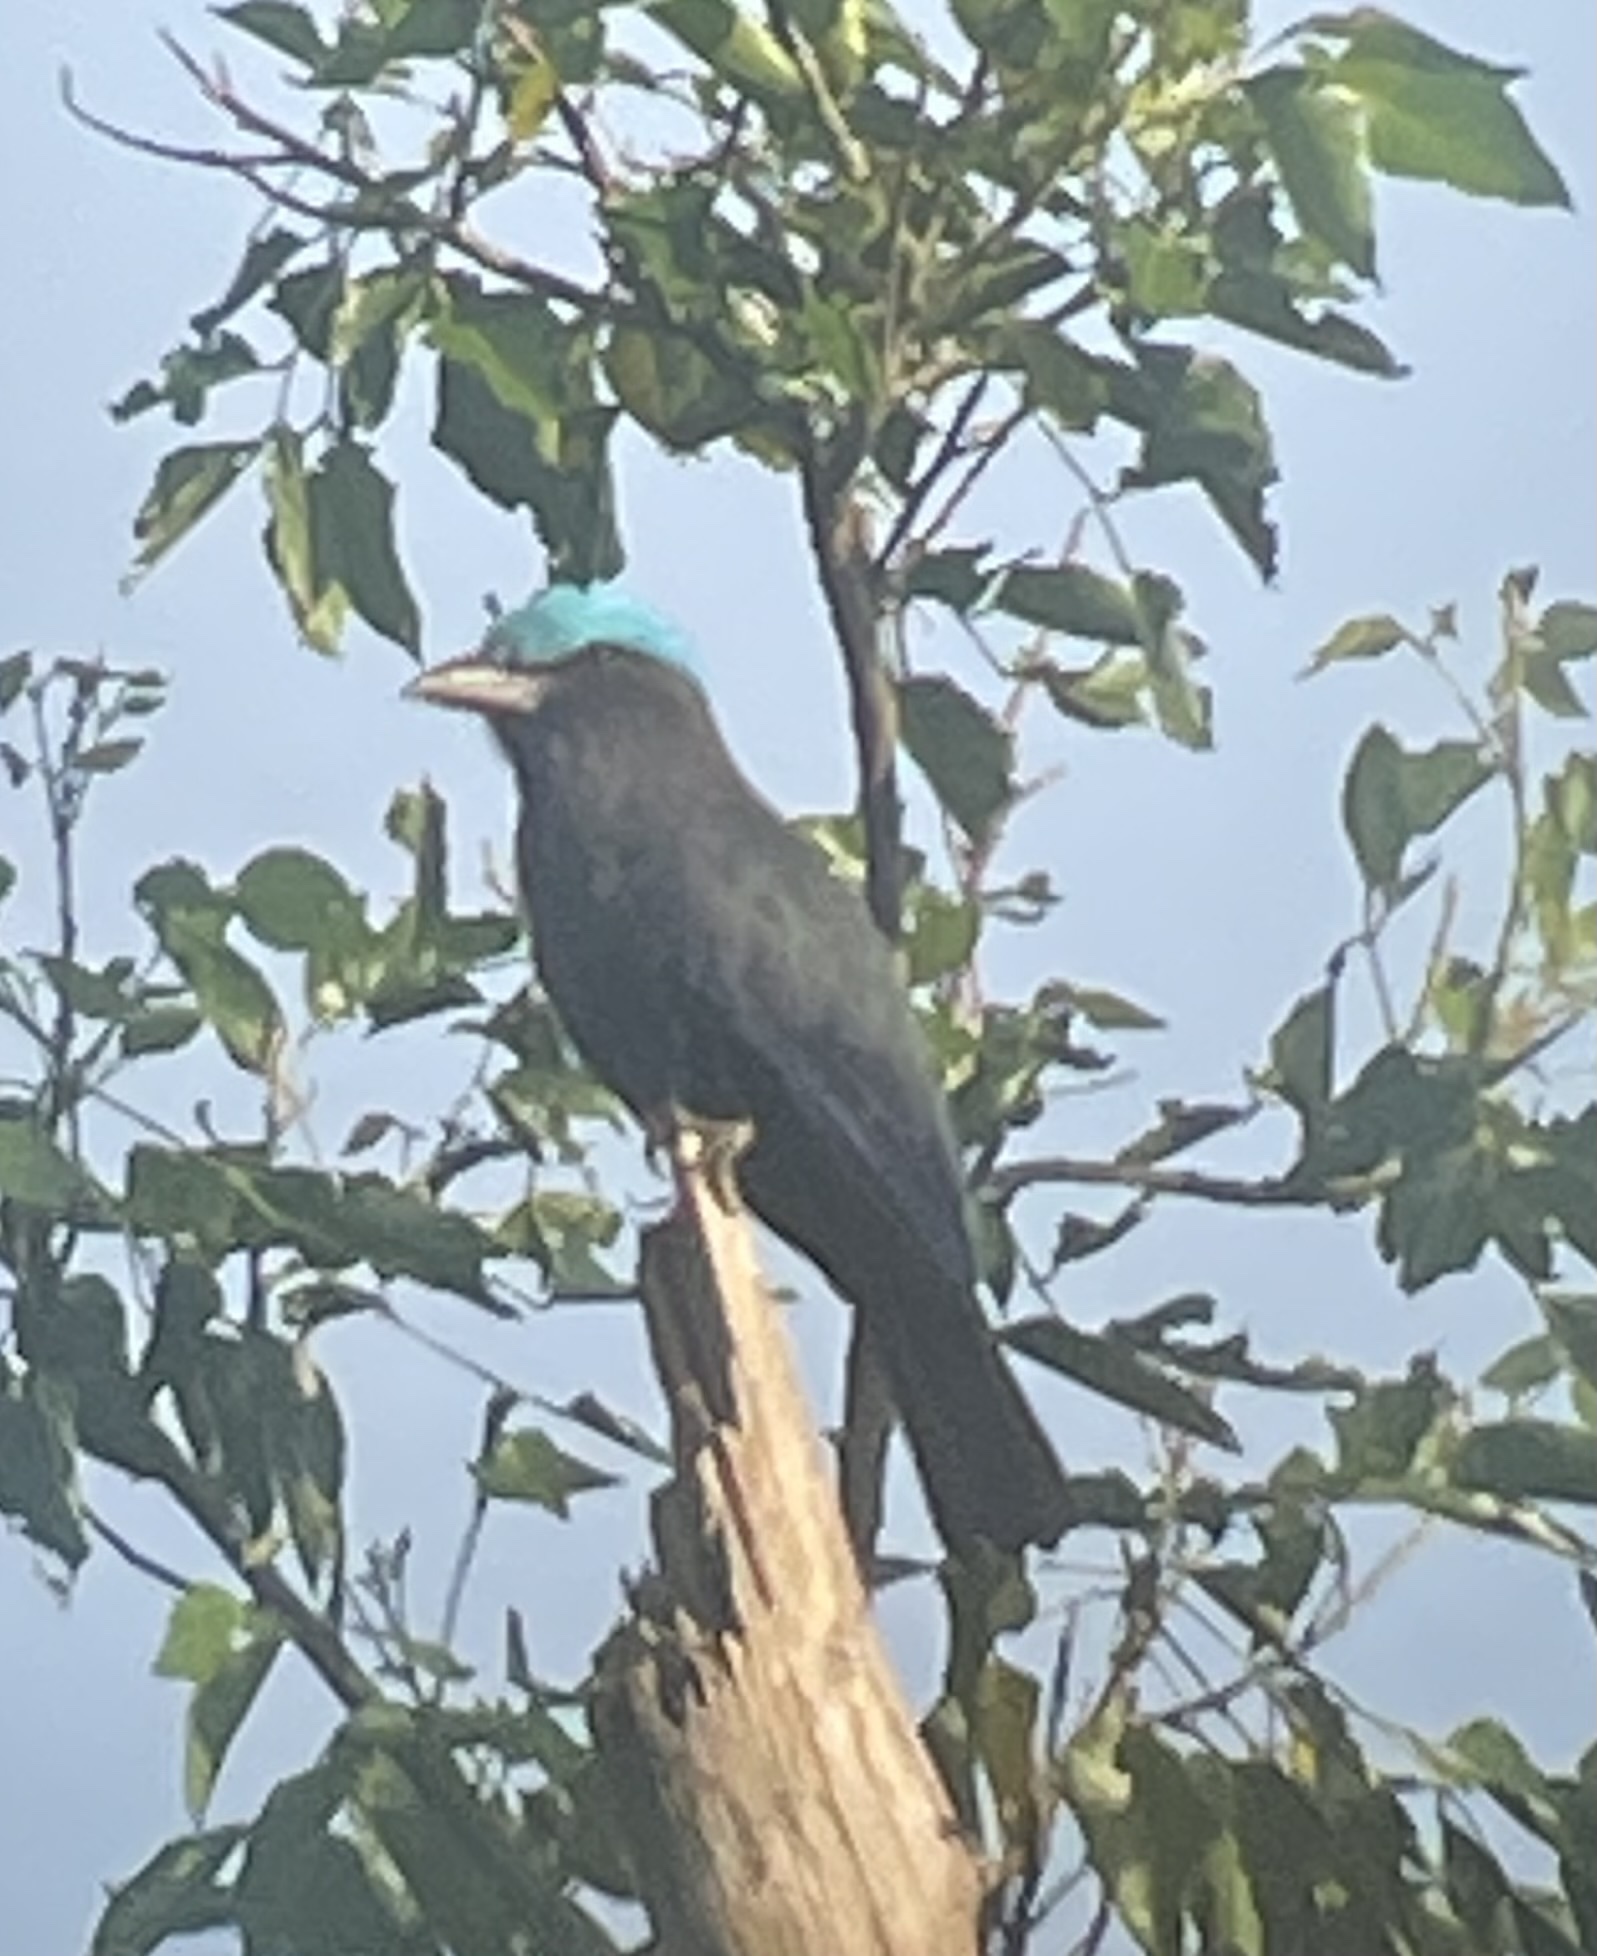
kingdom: Animalia
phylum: Chordata
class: Aves
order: Coraciiformes
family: Coraciidae
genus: Coracias
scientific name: Coracias temminckii
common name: Purple-winged roller
